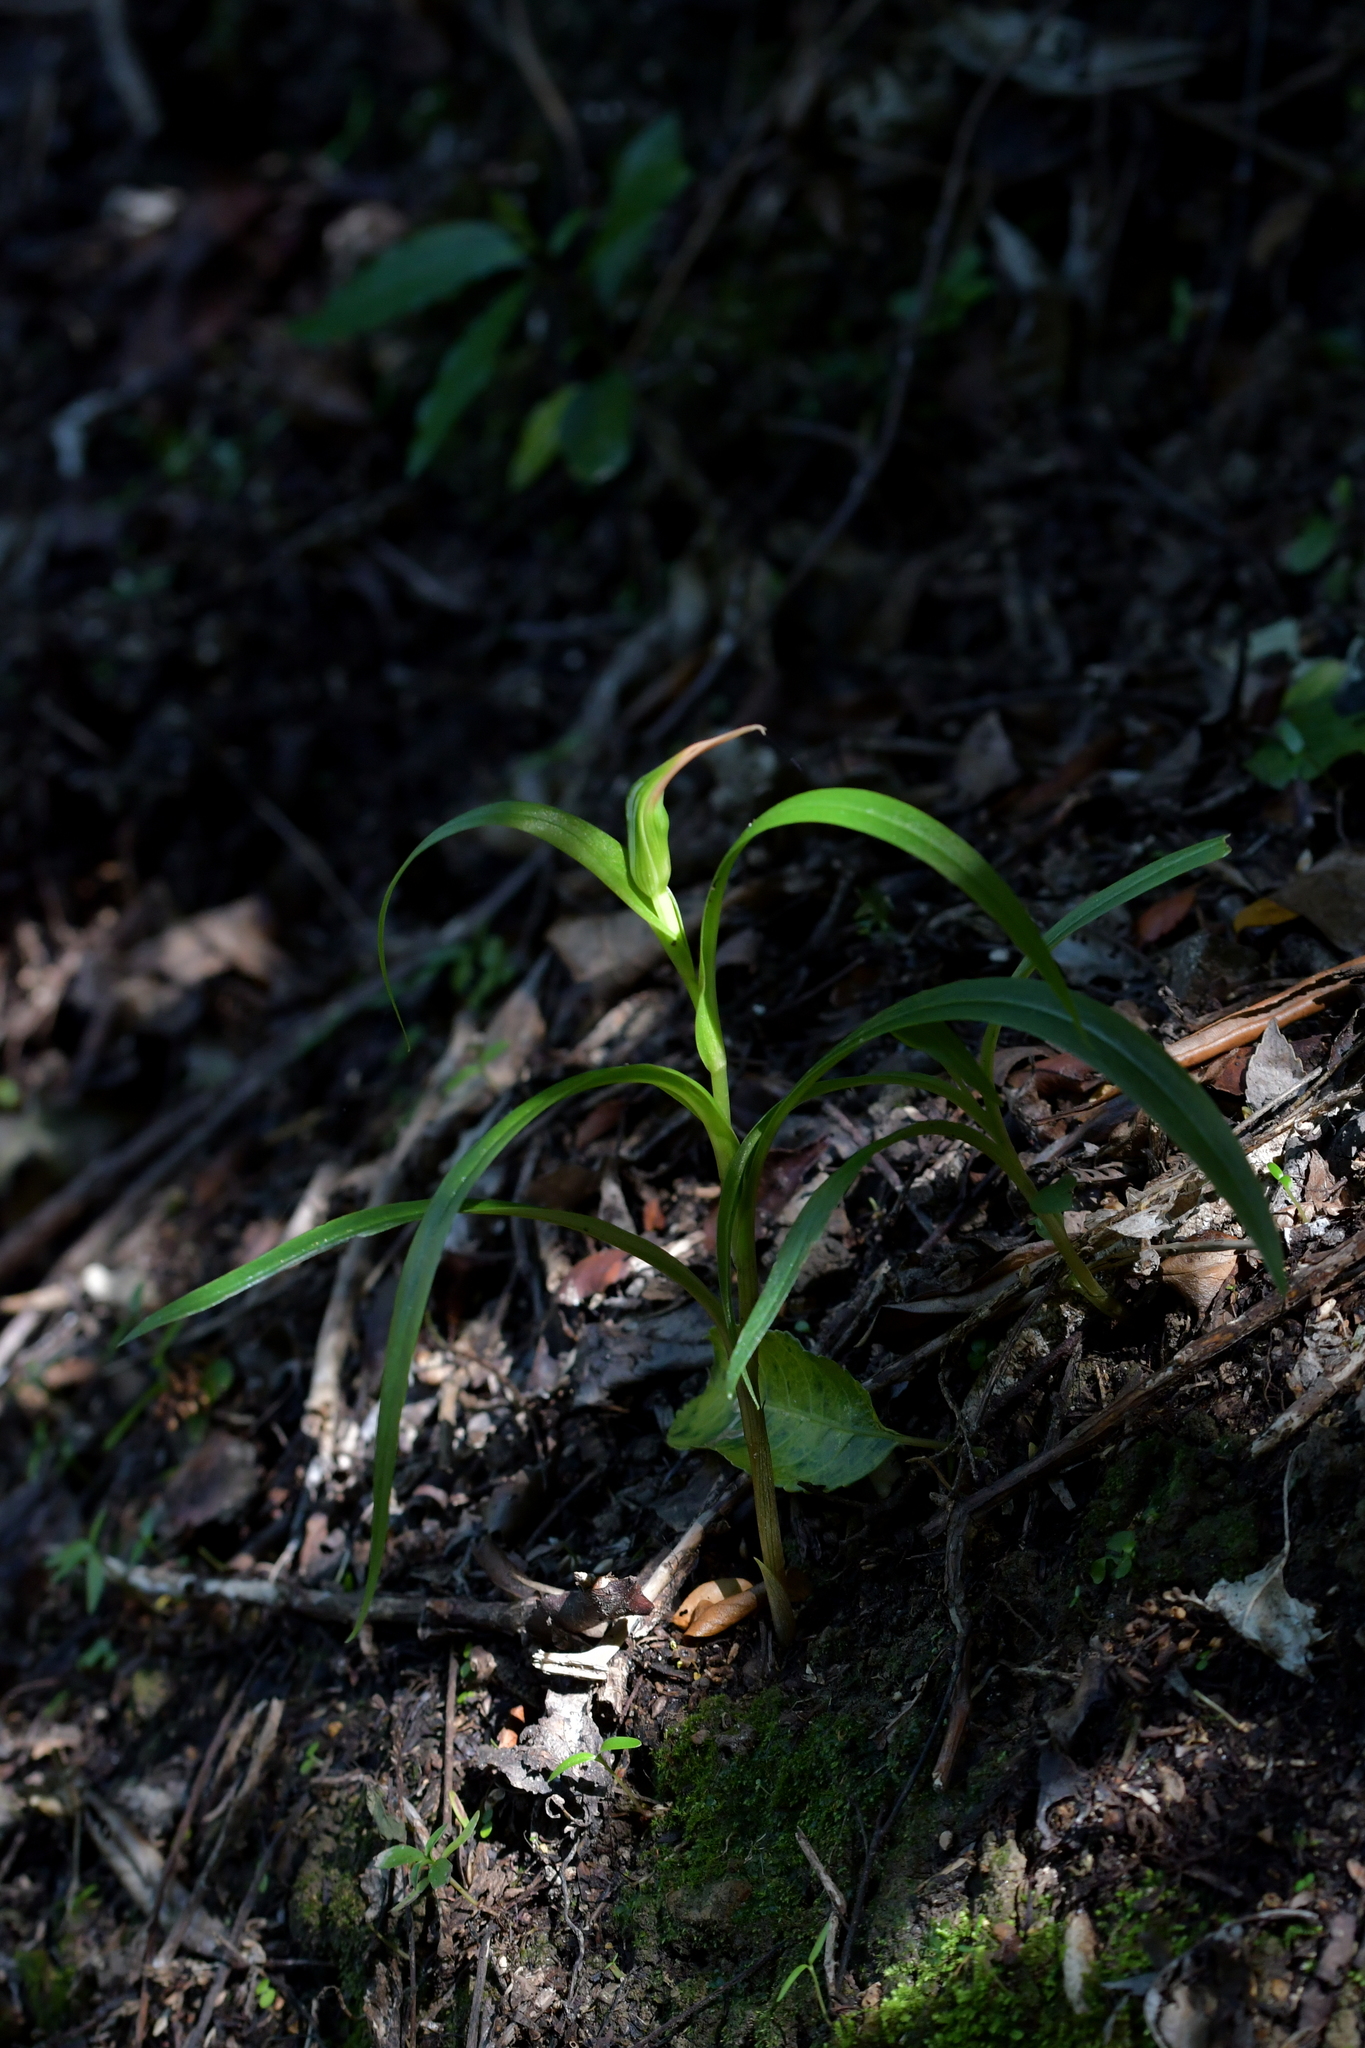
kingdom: Plantae
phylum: Tracheophyta
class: Liliopsida
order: Asparagales
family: Orchidaceae
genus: Pterostylis
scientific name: Pterostylis banksii
